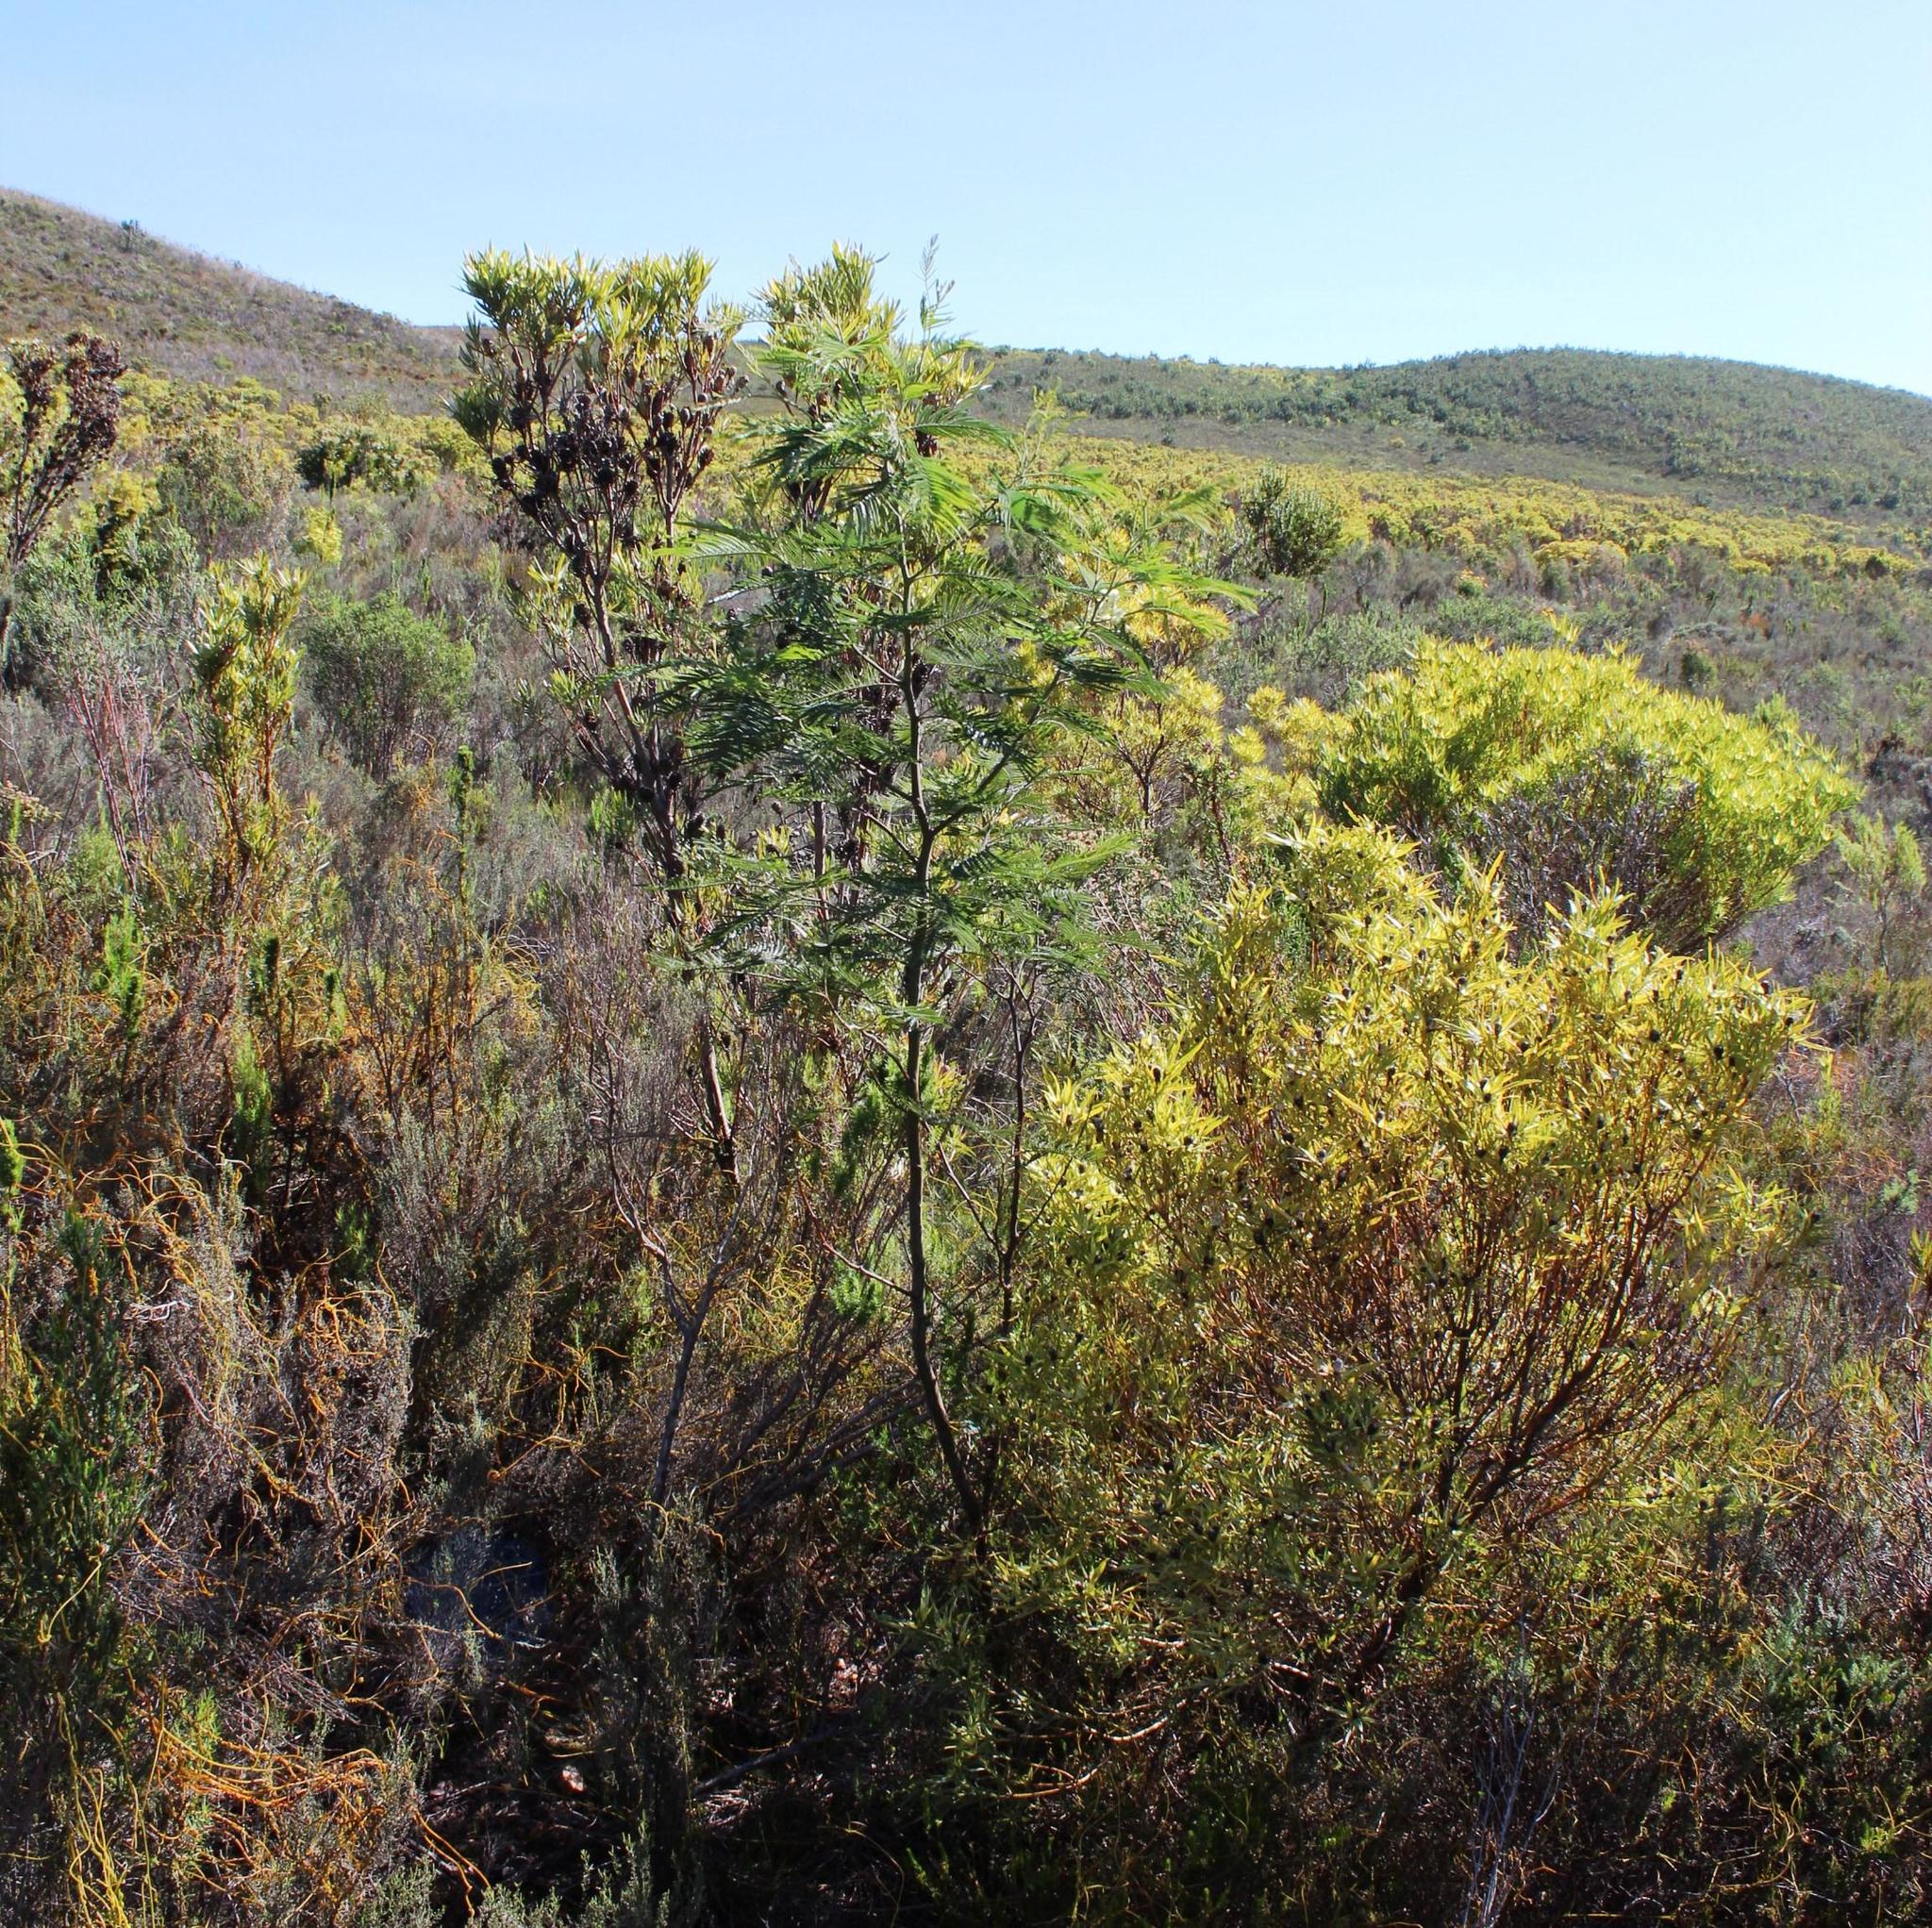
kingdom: Plantae
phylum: Tracheophyta
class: Magnoliopsida
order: Fabales
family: Fabaceae
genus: Acacia
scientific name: Acacia mearnsii
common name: Black wattle
